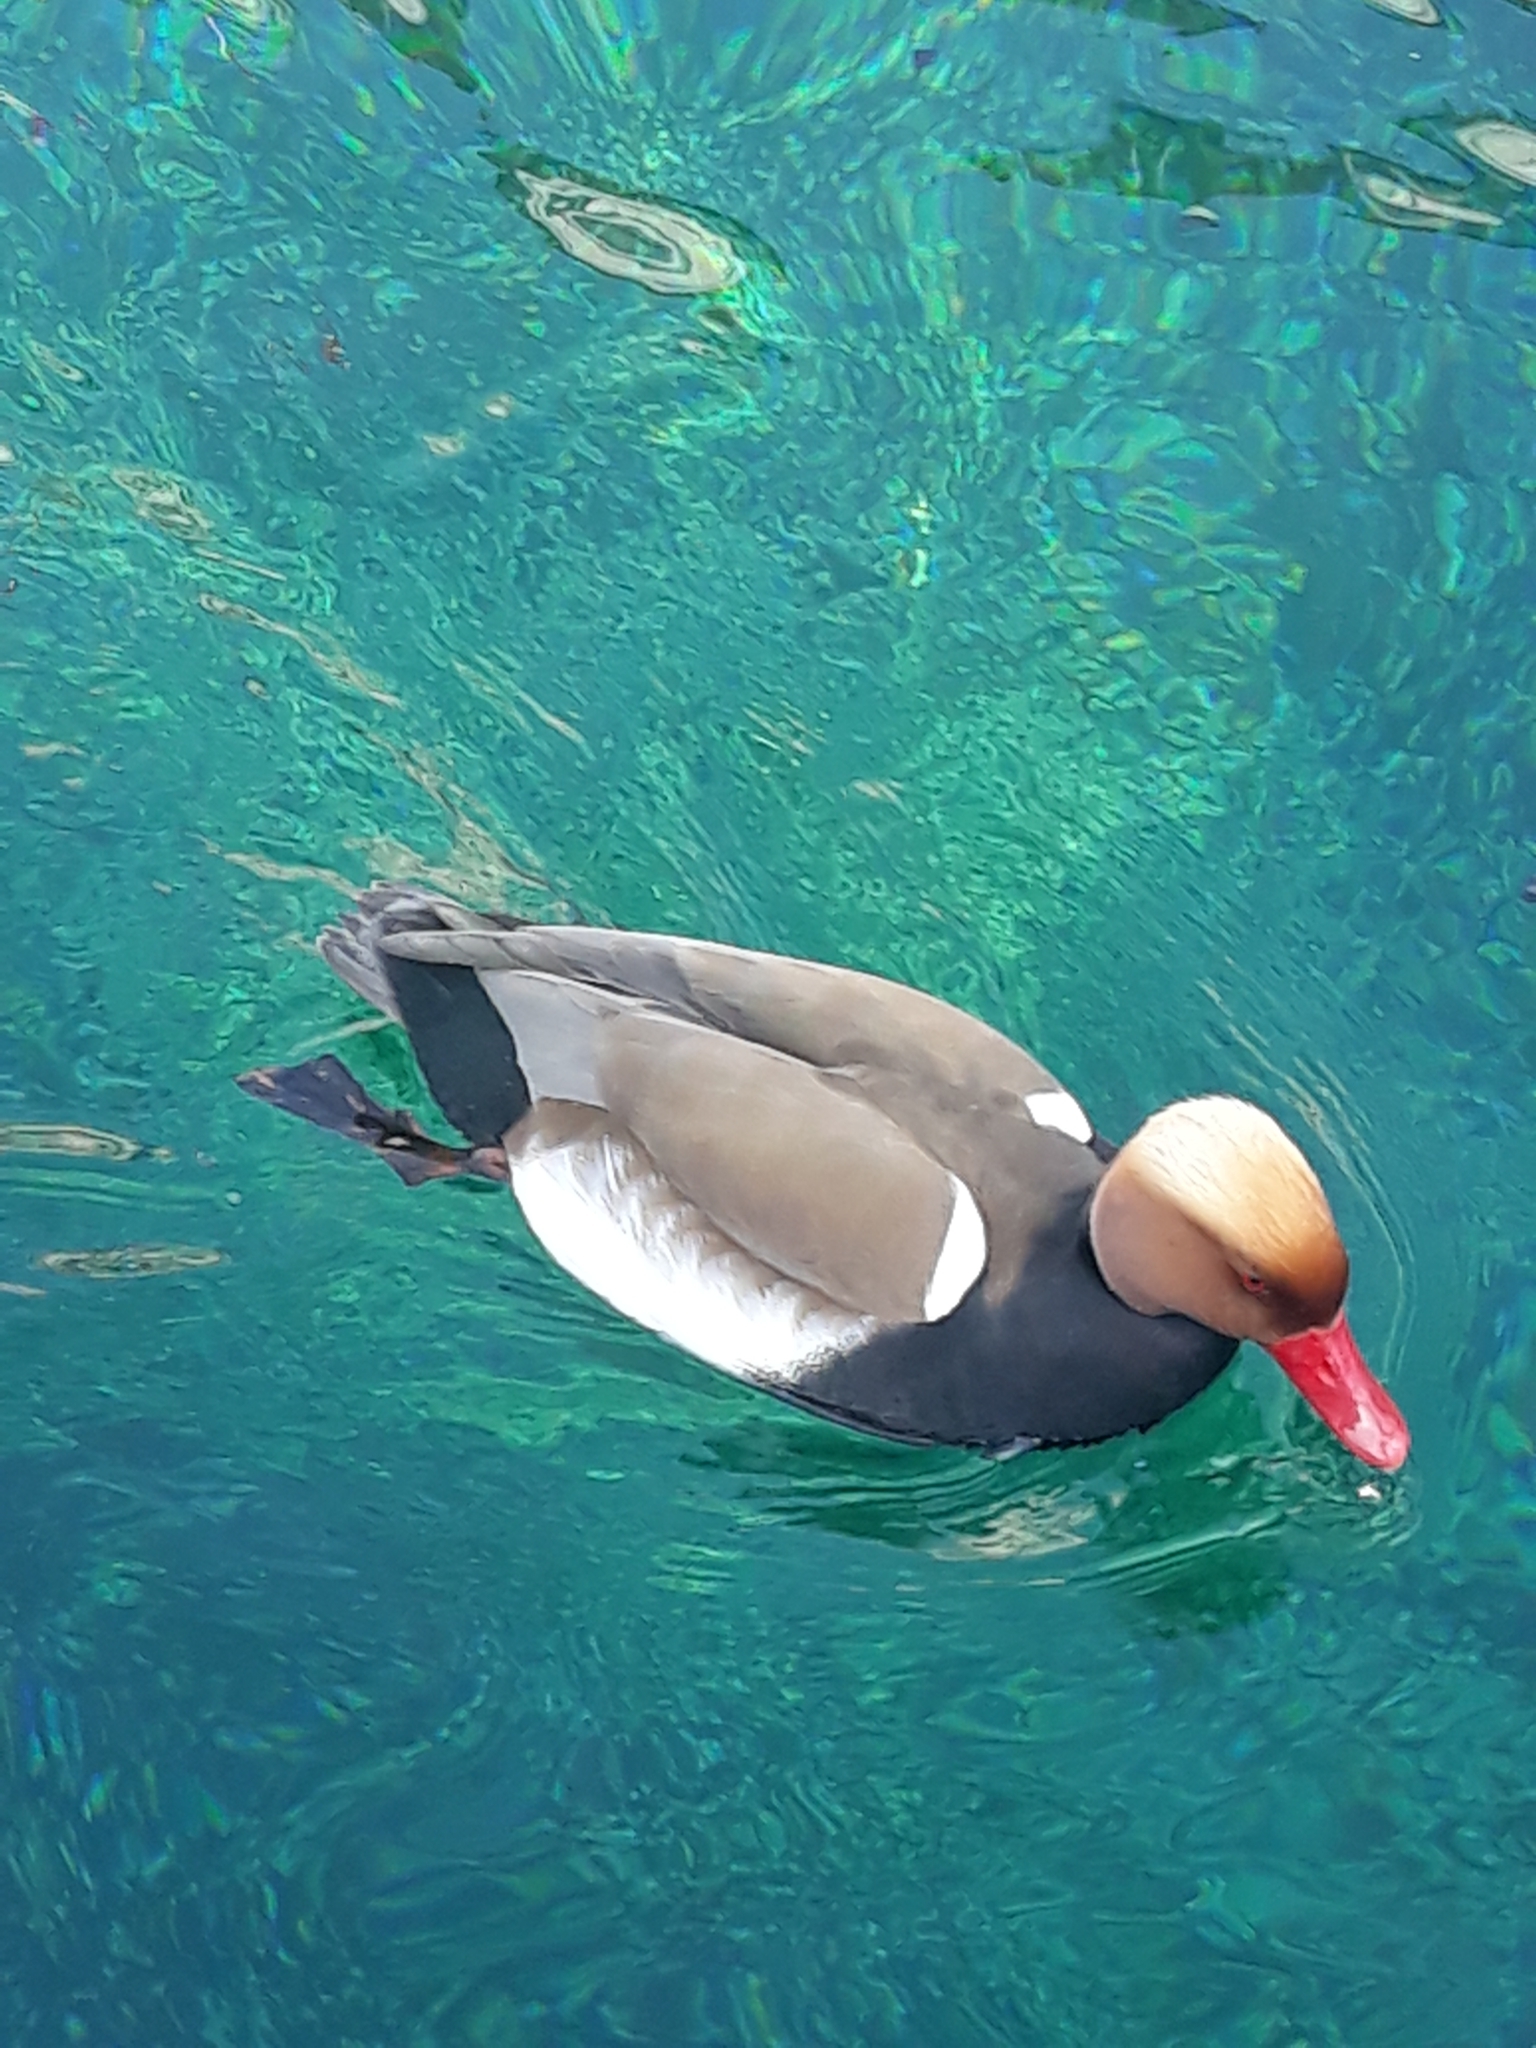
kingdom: Animalia
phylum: Chordata
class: Aves
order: Anseriformes
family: Anatidae
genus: Netta
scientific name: Netta rufina
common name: Red-crested pochard
